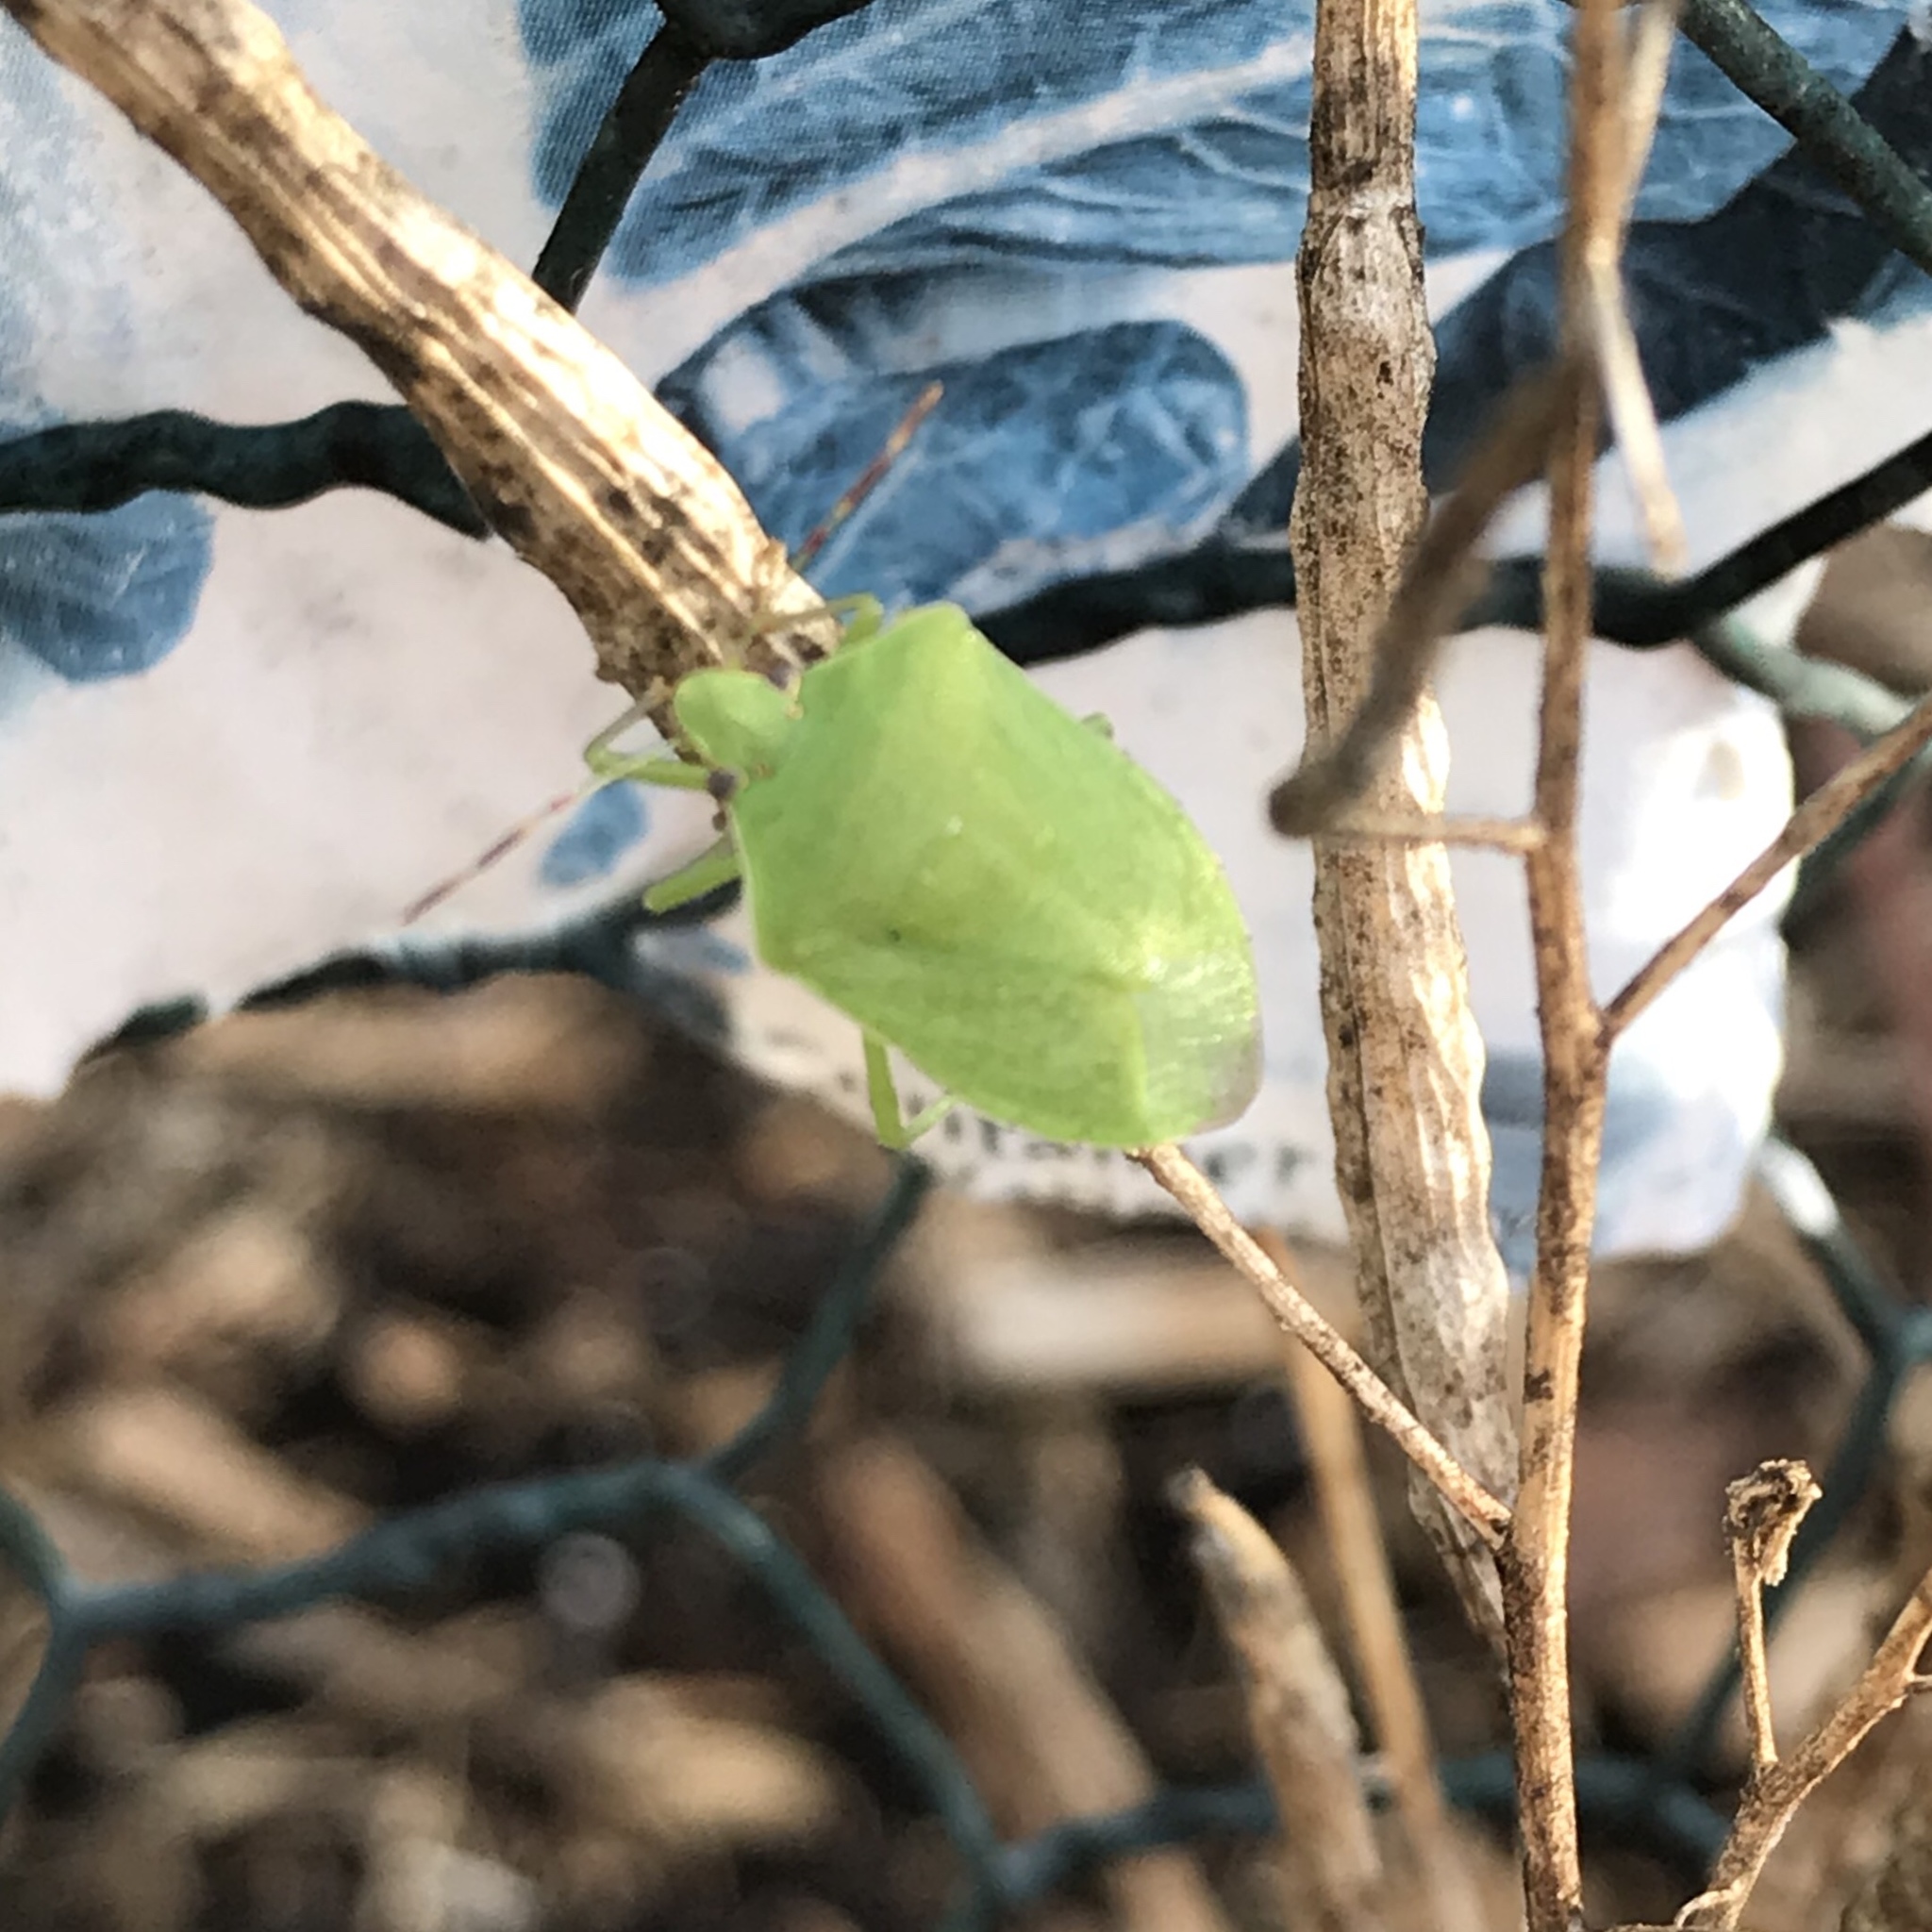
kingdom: Animalia
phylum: Arthropoda
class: Insecta
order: Hemiptera
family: Pentatomidae
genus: Nezara
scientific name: Nezara viridula
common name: Southern green stink bug
